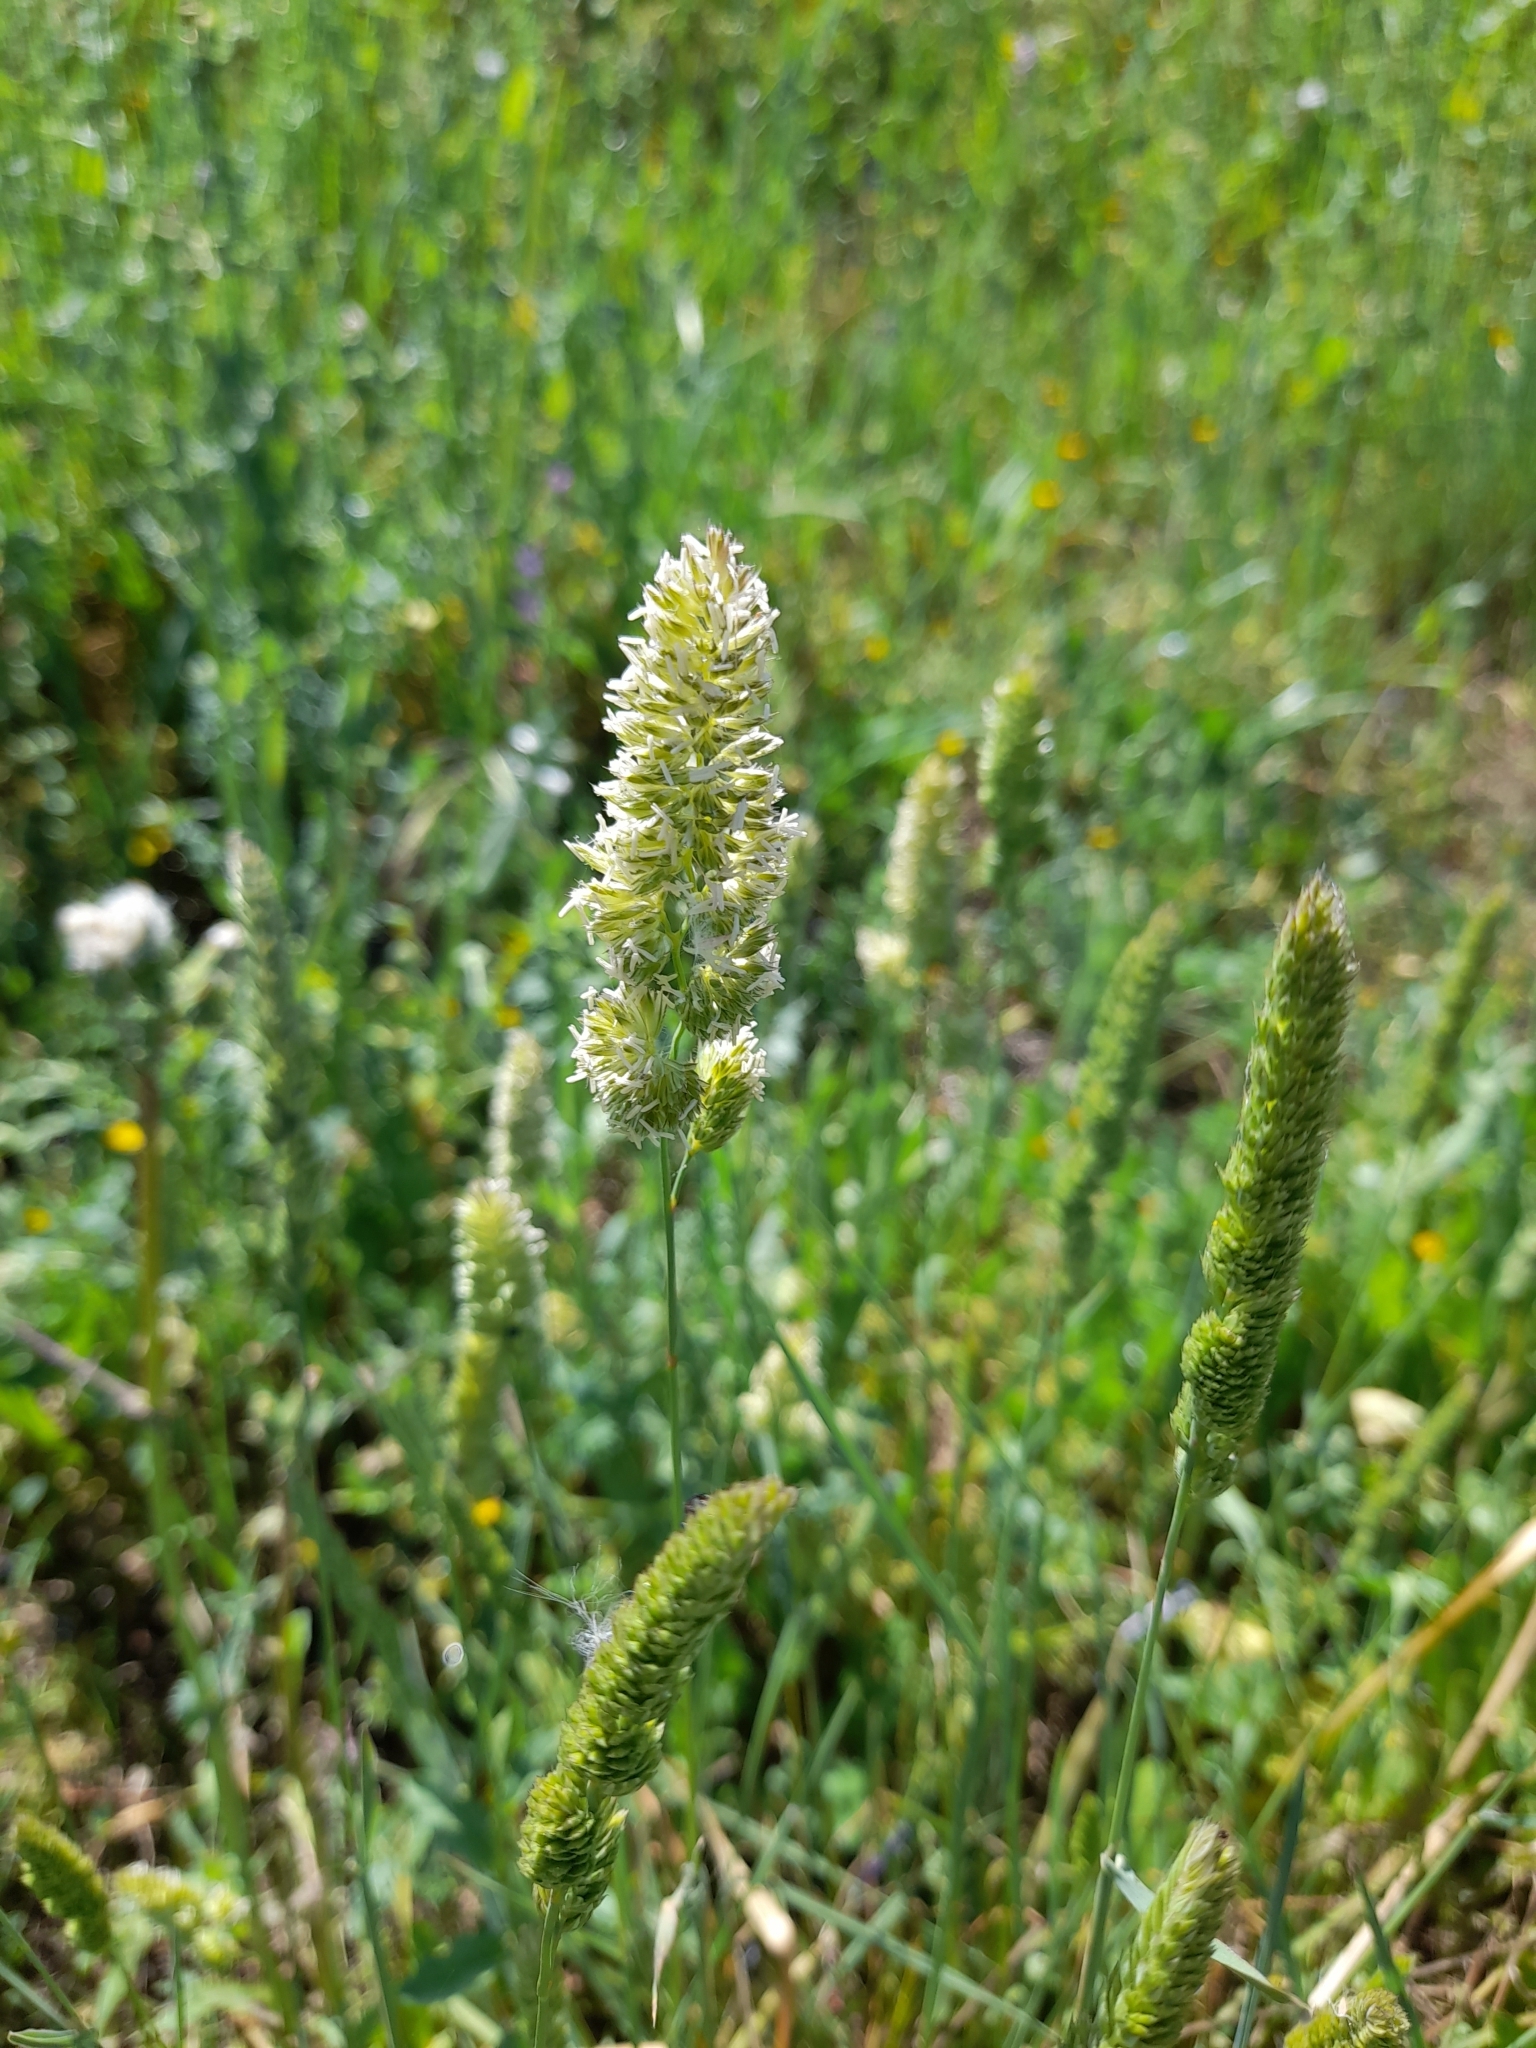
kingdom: Plantae
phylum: Tracheophyta
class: Liliopsida
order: Poales
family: Poaceae
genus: Dactylis
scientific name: Dactylis glomerata
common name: Orchardgrass
